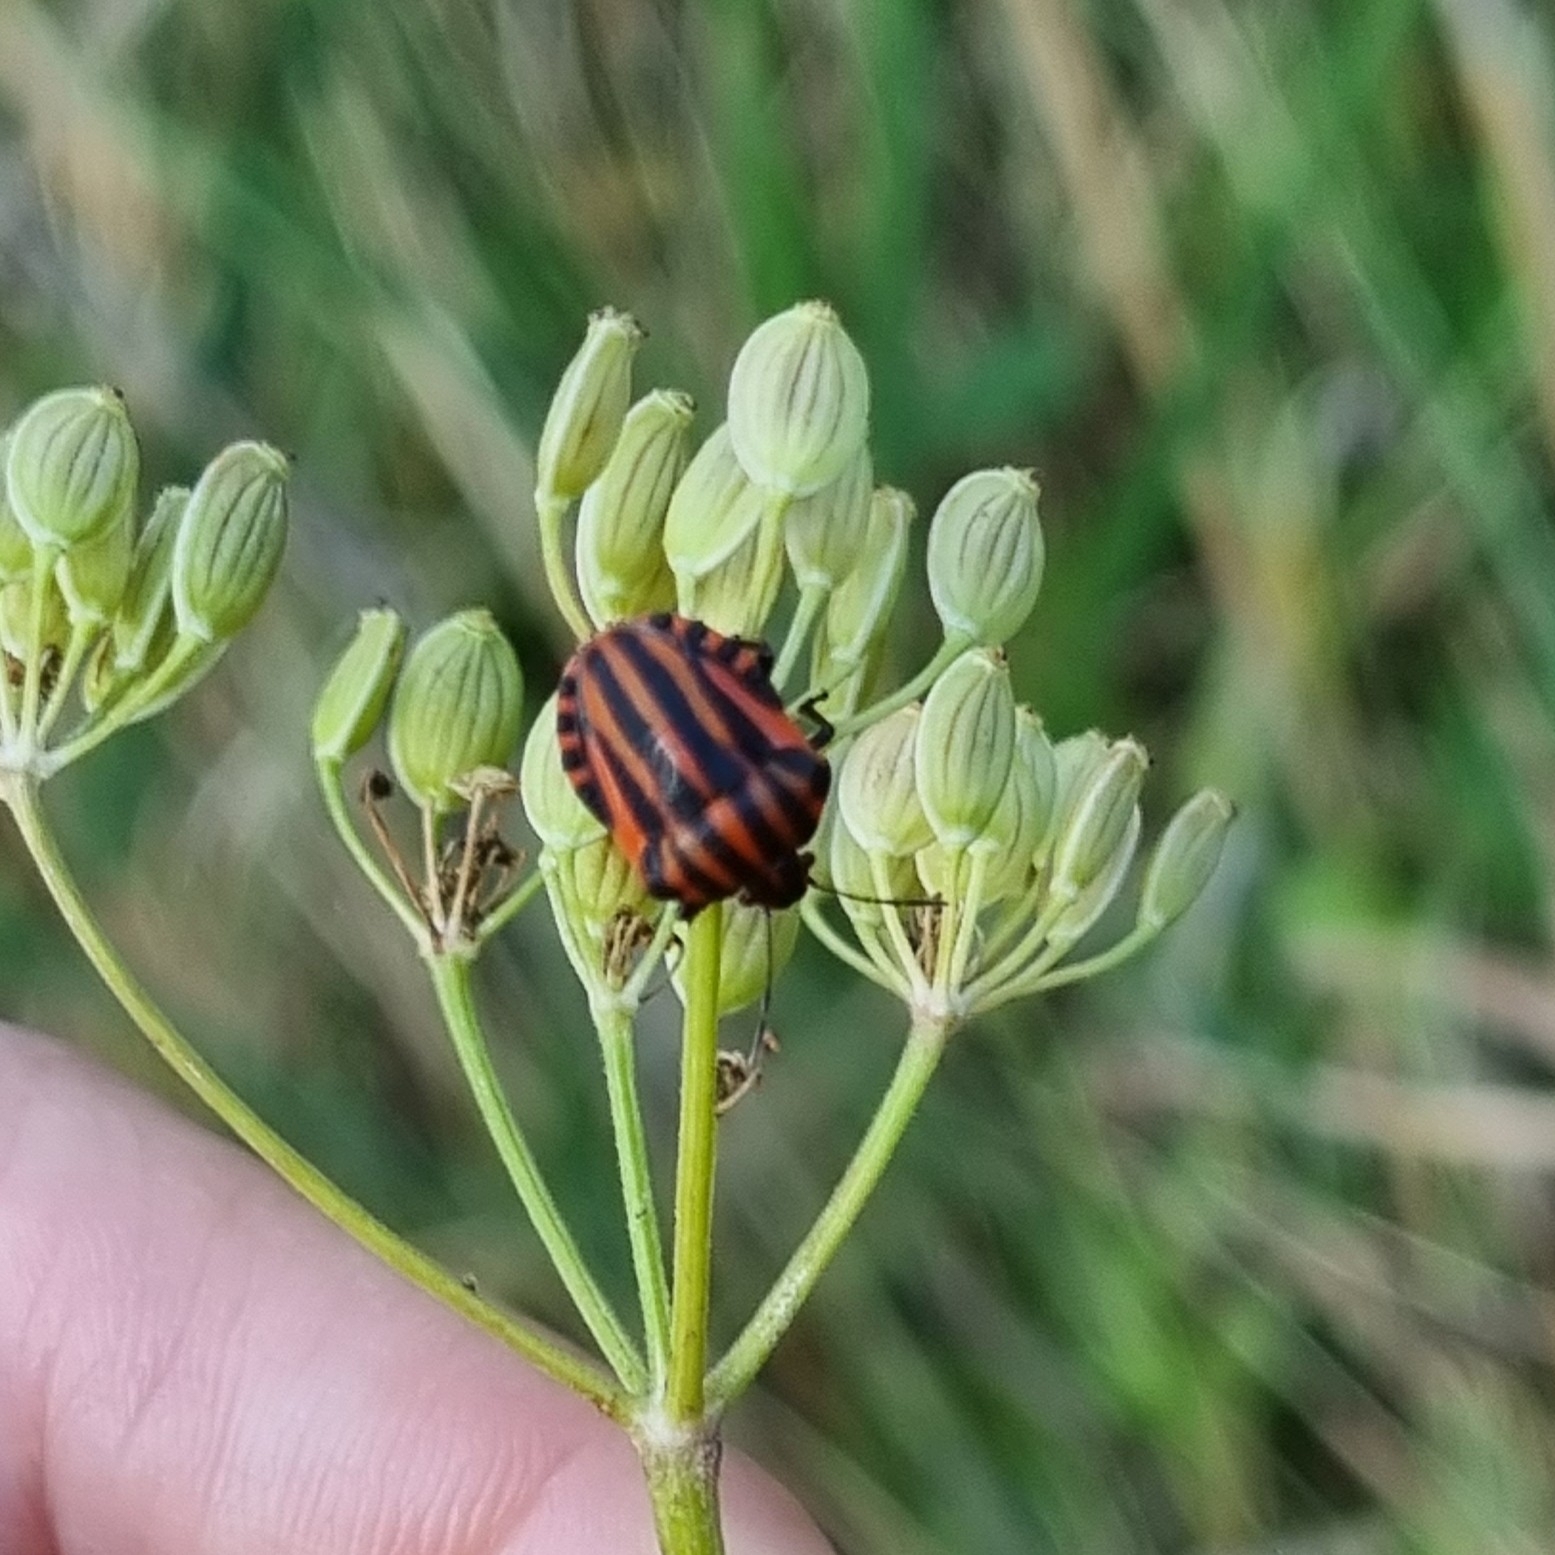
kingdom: Animalia
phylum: Arthropoda
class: Insecta
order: Hemiptera
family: Pentatomidae
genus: Graphosoma
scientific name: Graphosoma italicum
